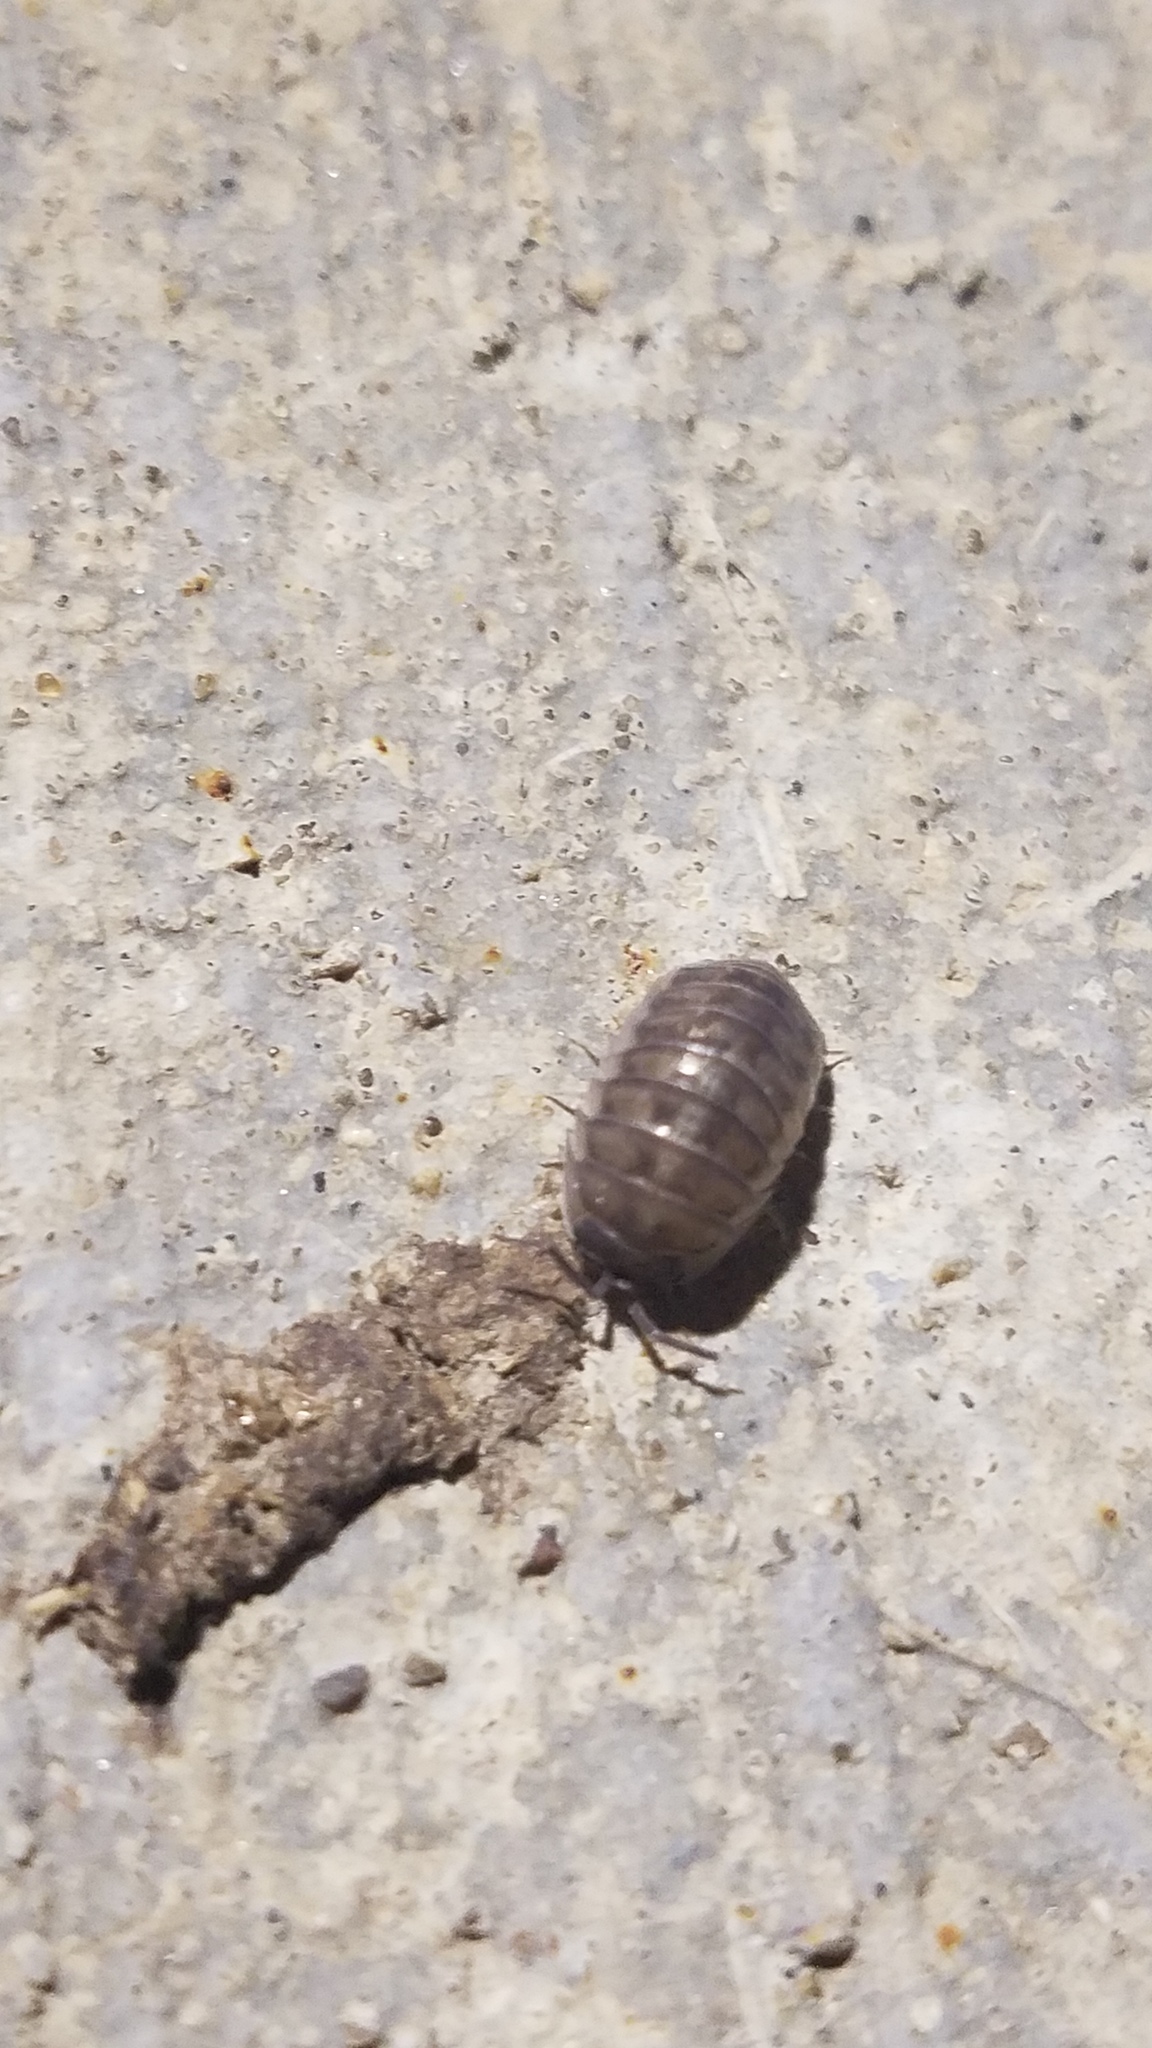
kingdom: Animalia
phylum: Arthropoda
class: Malacostraca
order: Isopoda
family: Armadillidiidae
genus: Armadillidium
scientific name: Armadillidium nasatum
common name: Isopod
